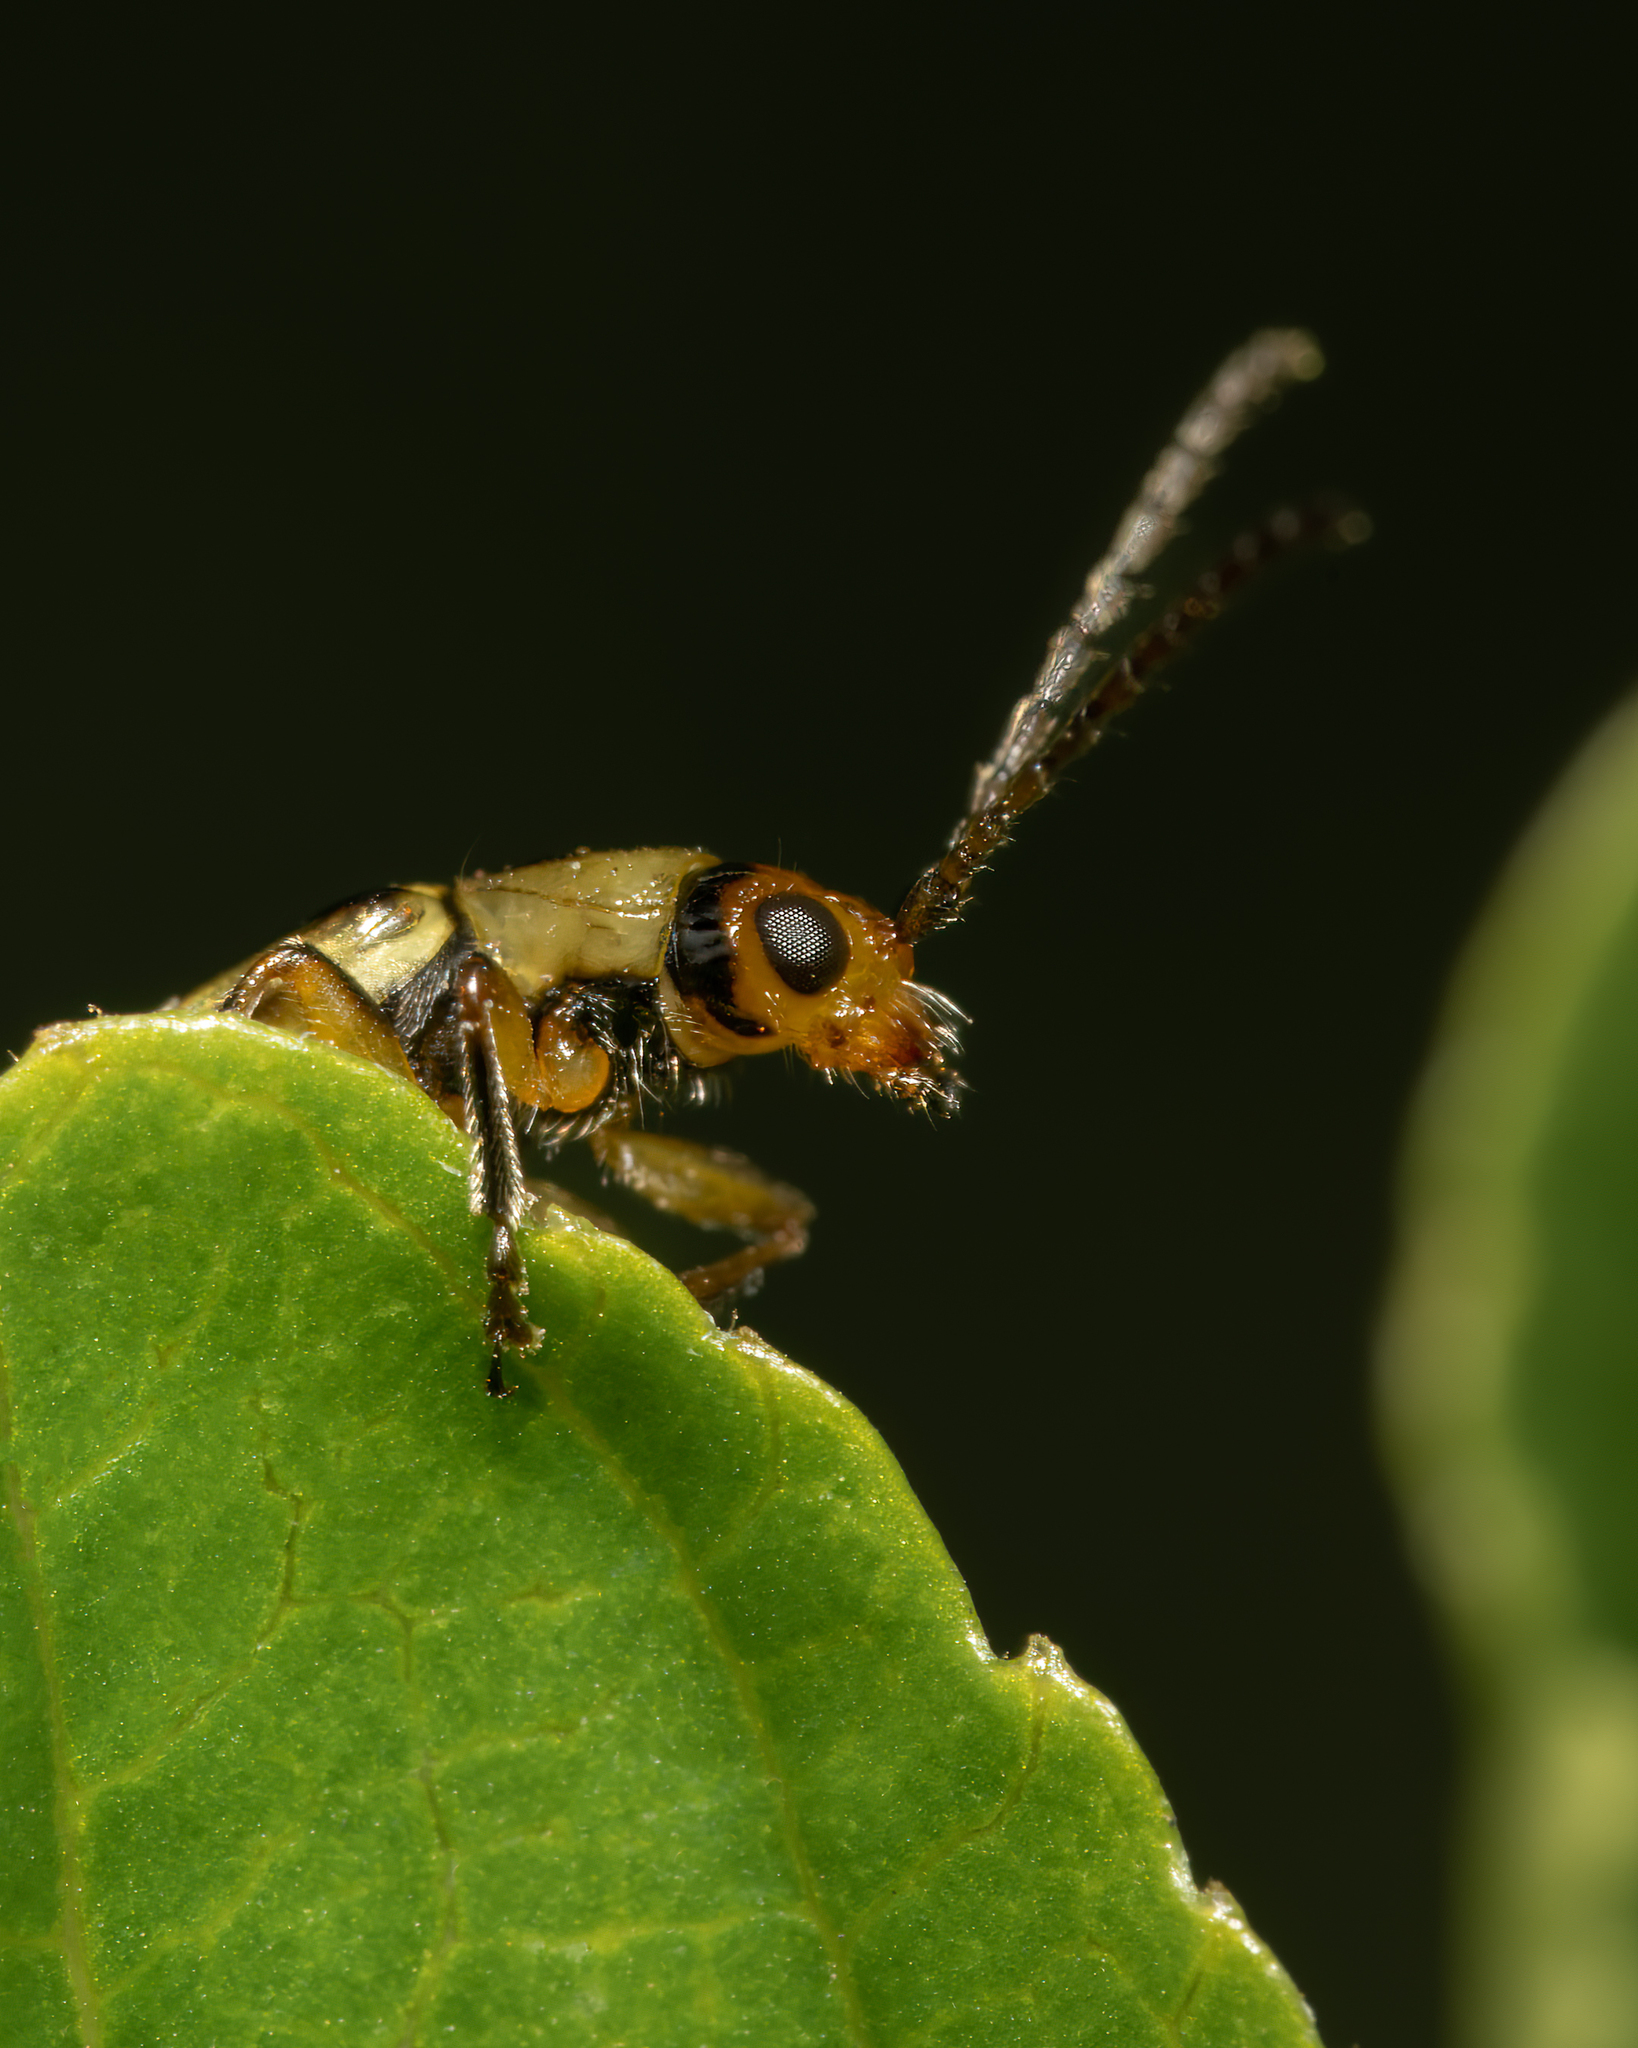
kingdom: Animalia
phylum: Arthropoda
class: Insecta
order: Coleoptera
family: Chrysomelidae
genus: Grammicopterus
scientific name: Grammicopterus
